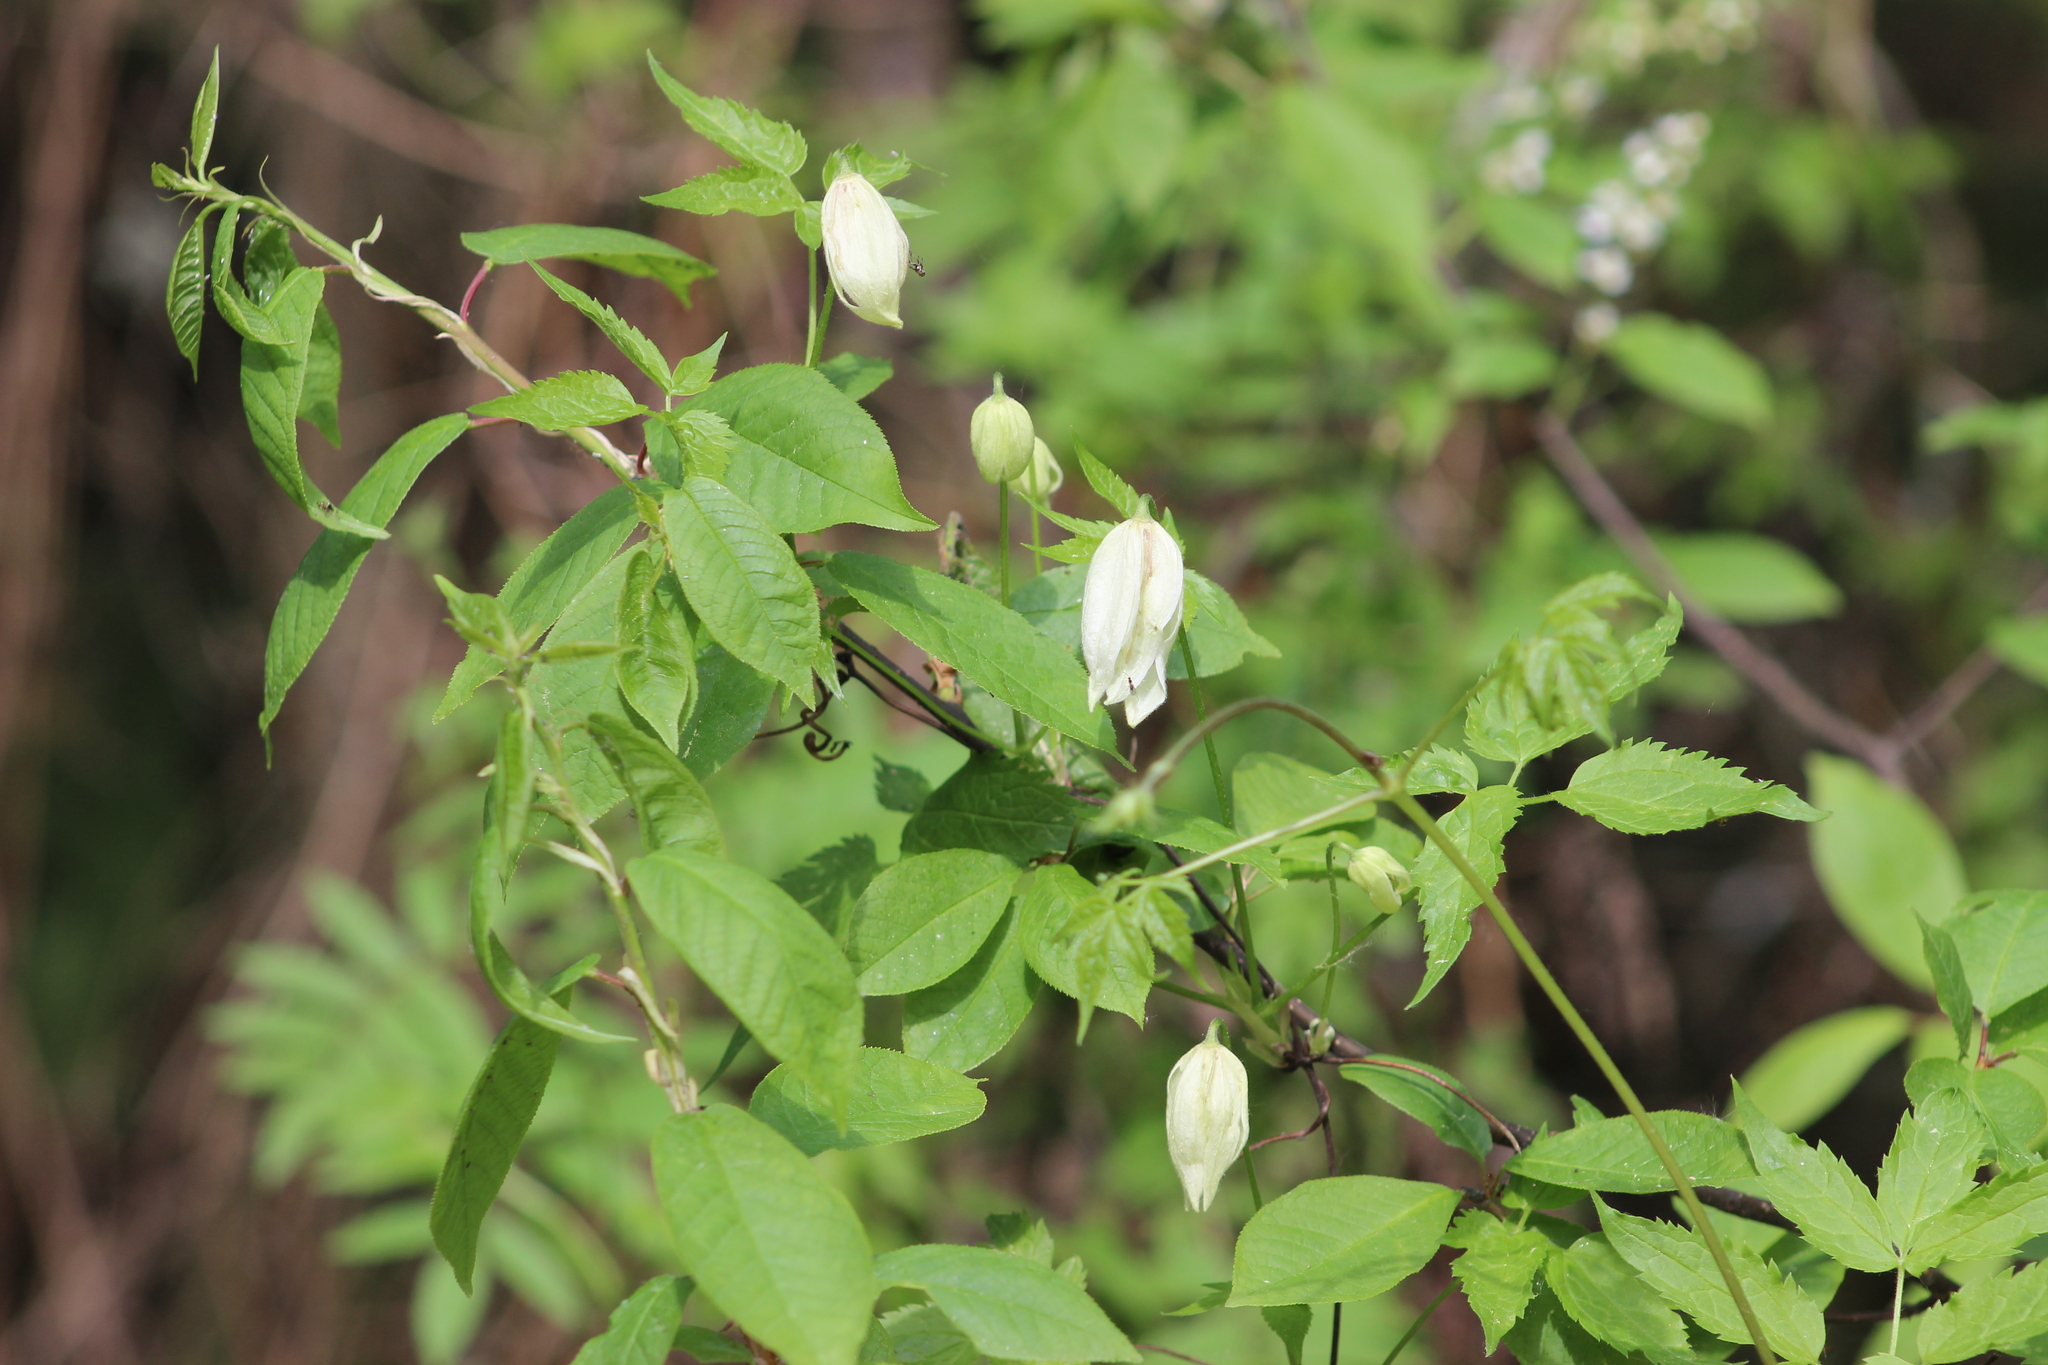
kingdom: Plantae
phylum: Tracheophyta
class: Magnoliopsida
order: Ranunculales
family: Ranunculaceae
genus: Clematis
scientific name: Clematis sibirica
